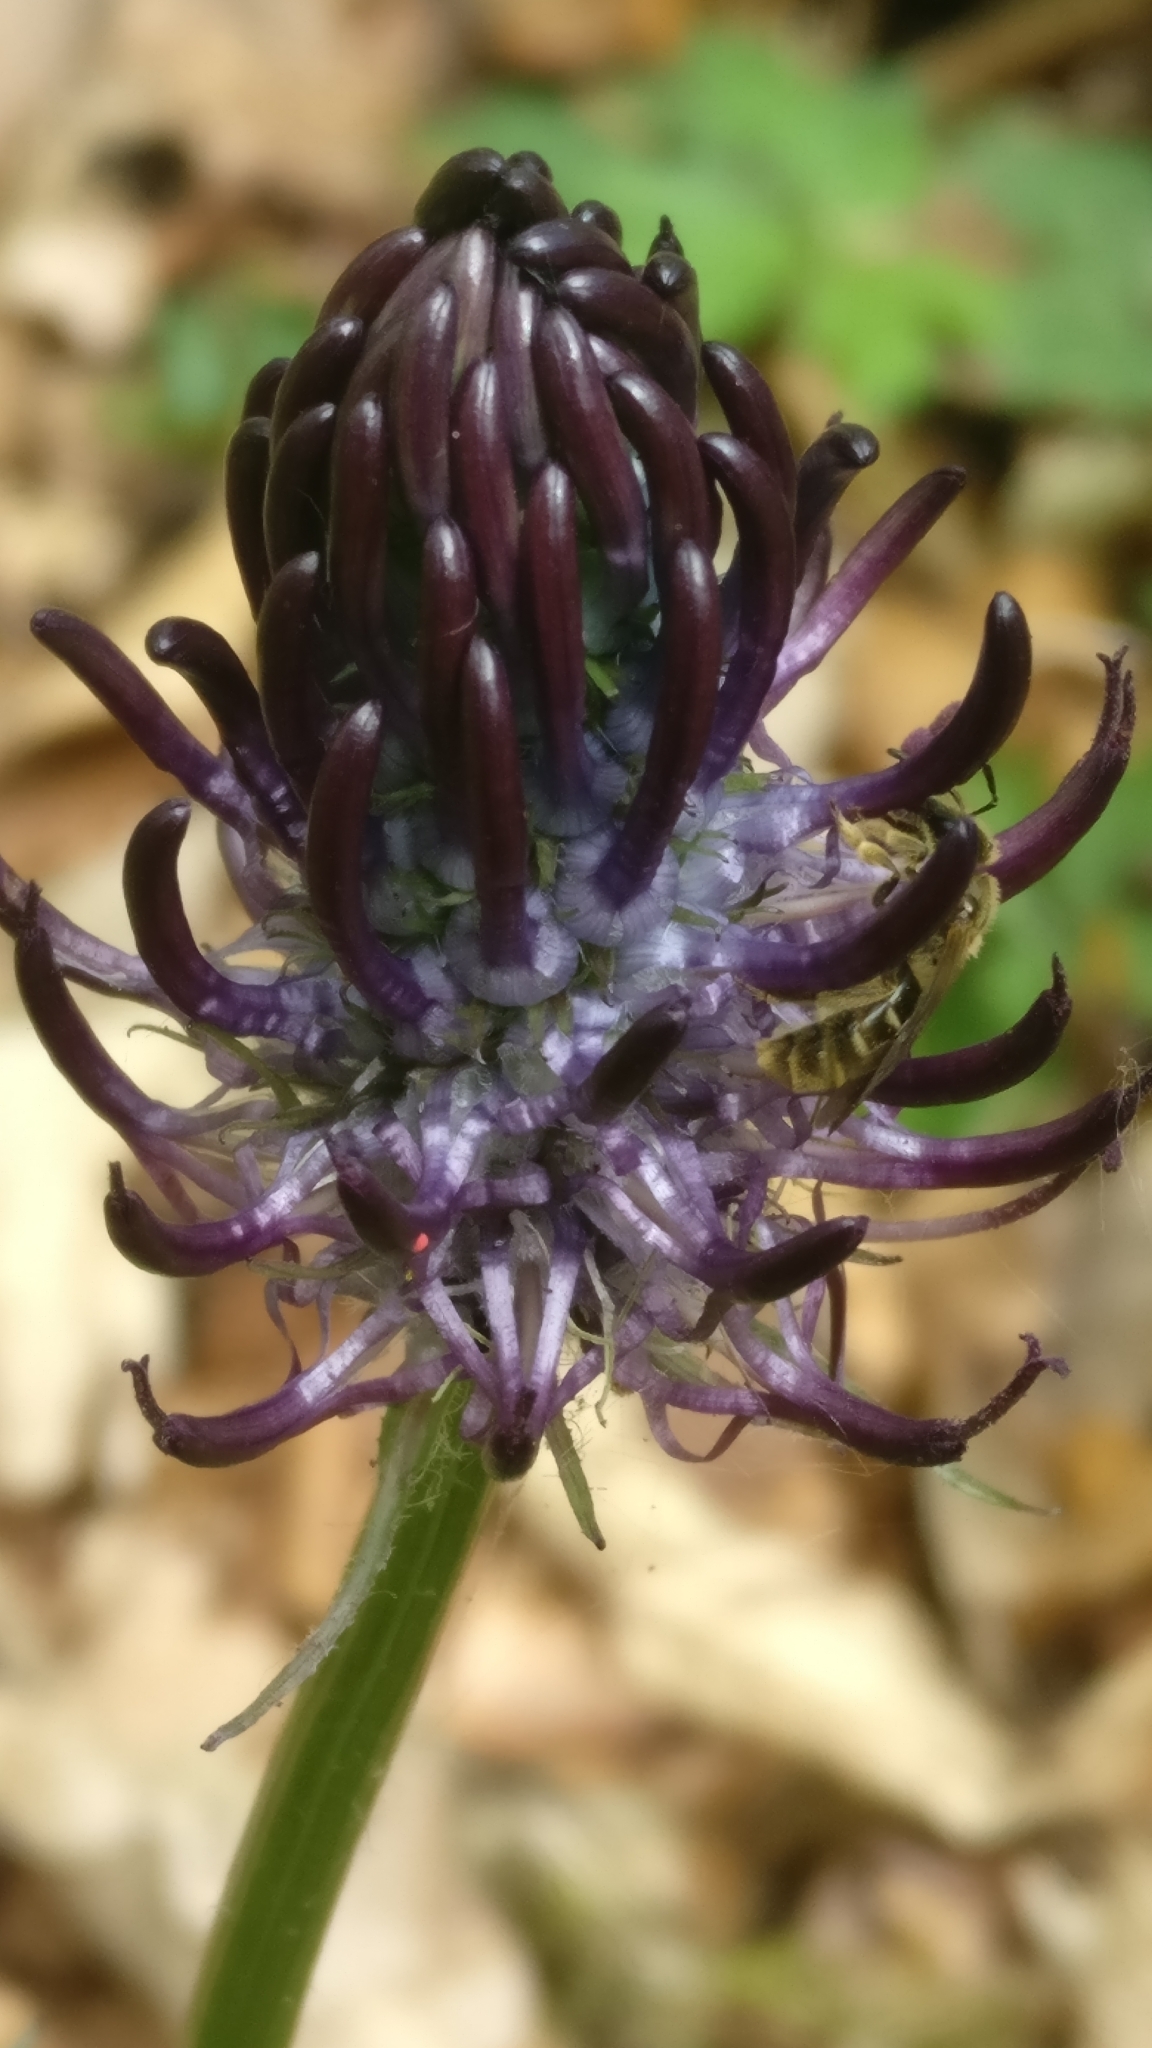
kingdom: Plantae
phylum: Tracheophyta
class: Magnoliopsida
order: Asterales
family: Campanulaceae
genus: Phyteuma
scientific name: Phyteuma nigrum
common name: Black rampion
